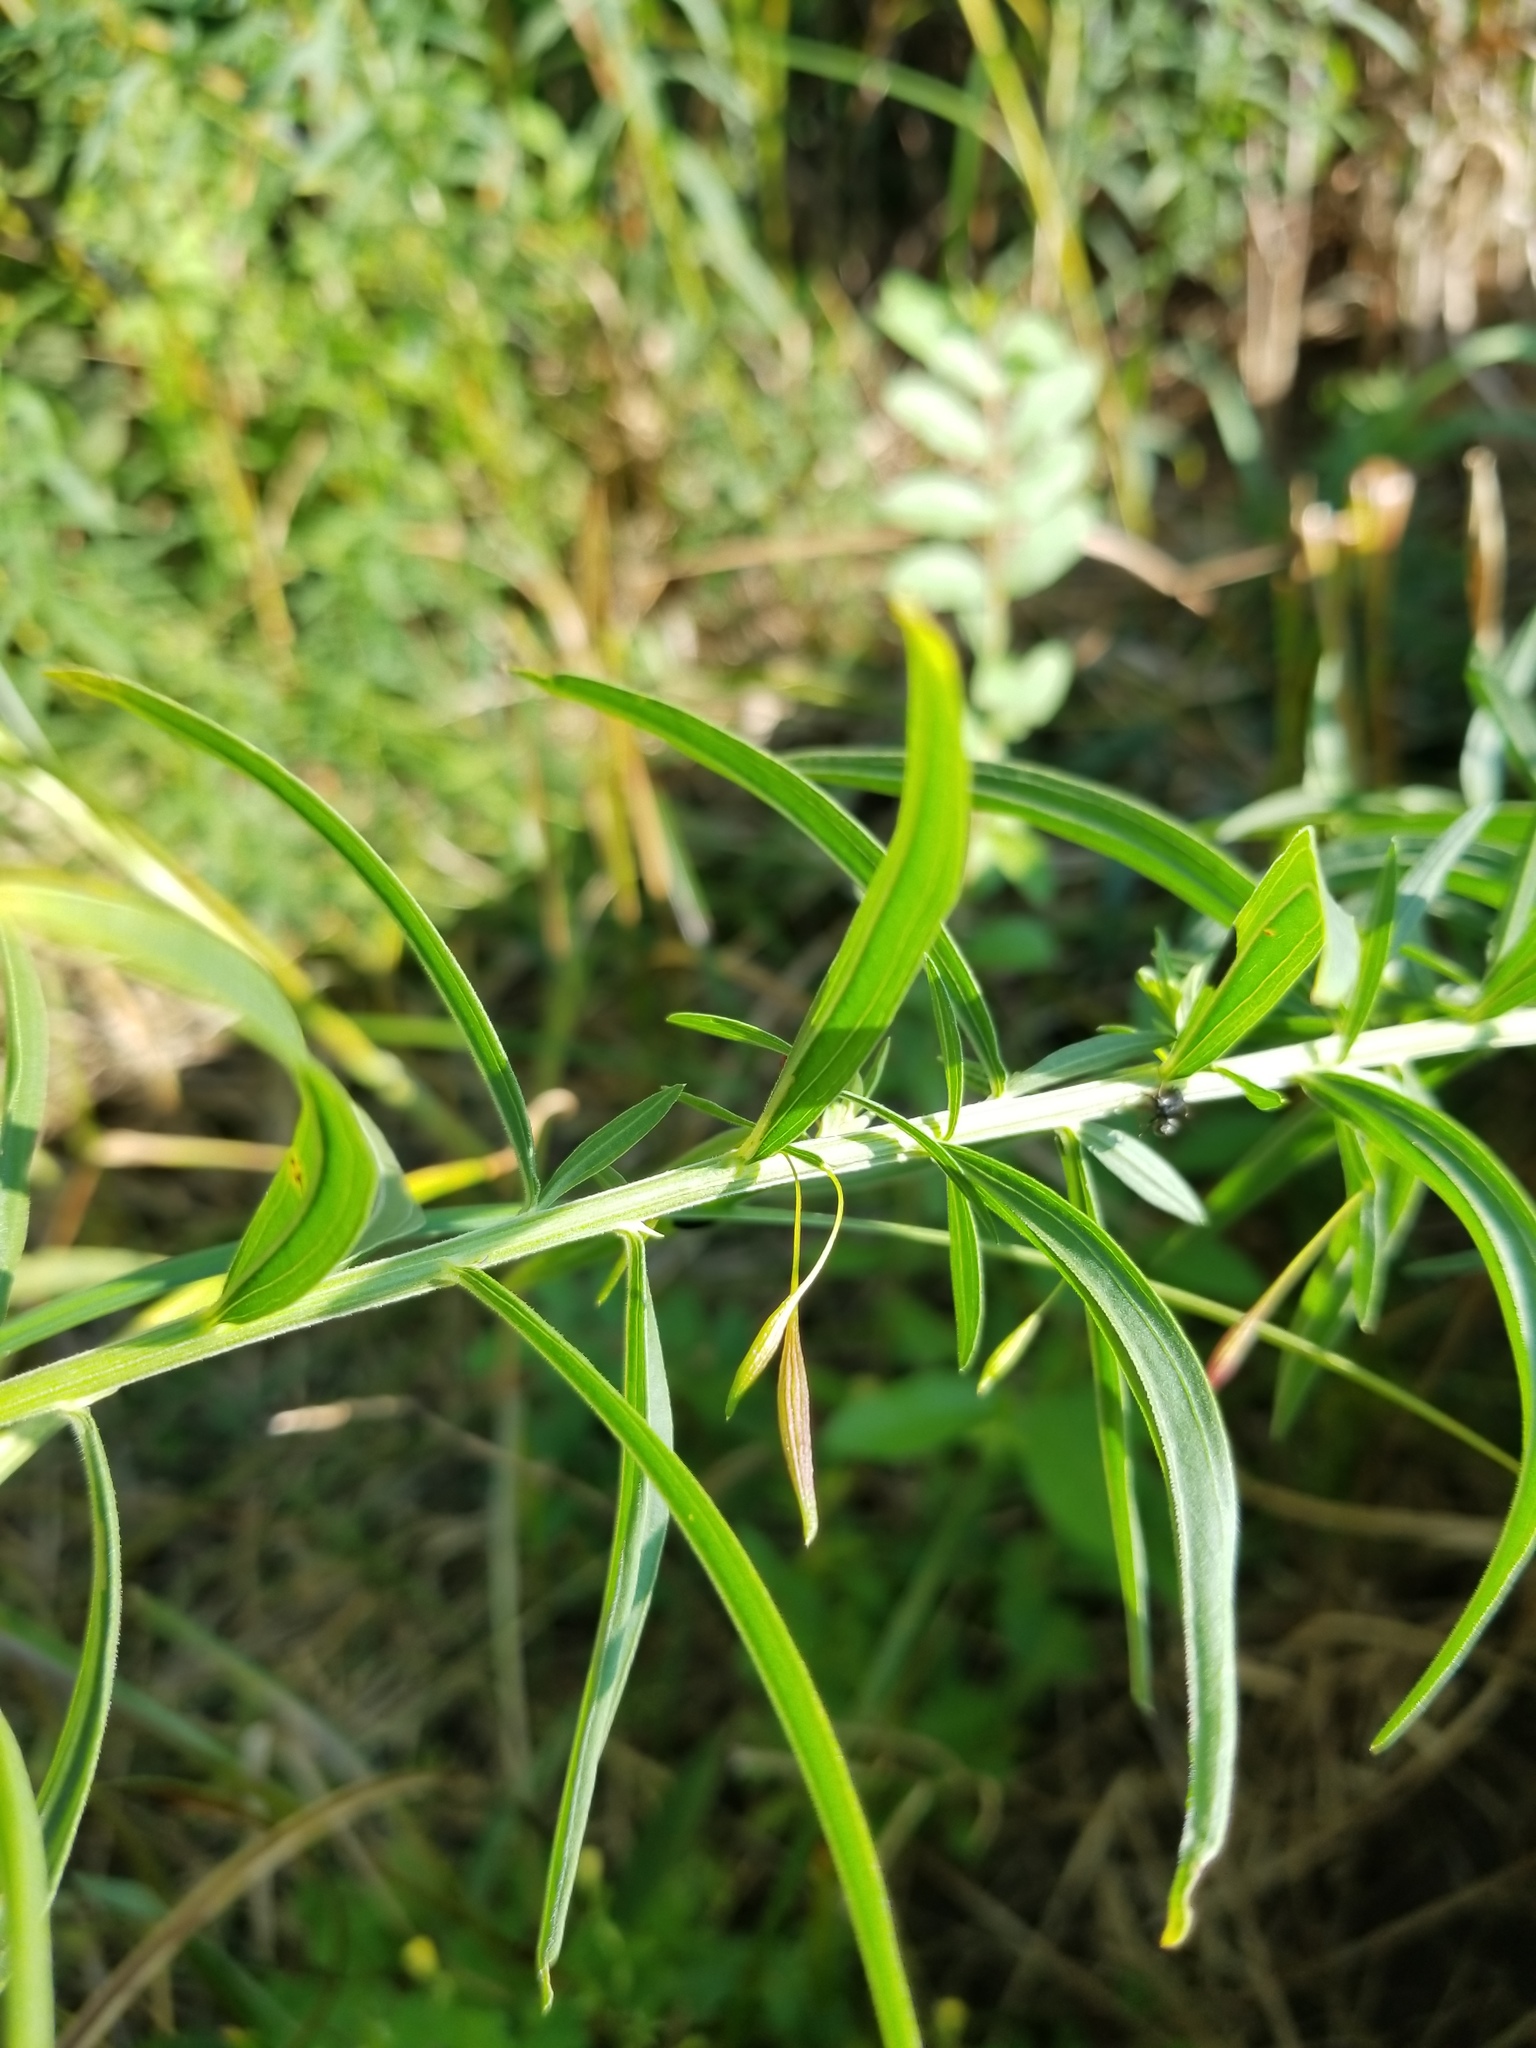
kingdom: Animalia
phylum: Arthropoda
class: Insecta
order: Diptera
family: Cecidomyiidae
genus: Rhopalomyia
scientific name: Rhopalomyia pedicellata
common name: Goldentop pedicellate gall midge
